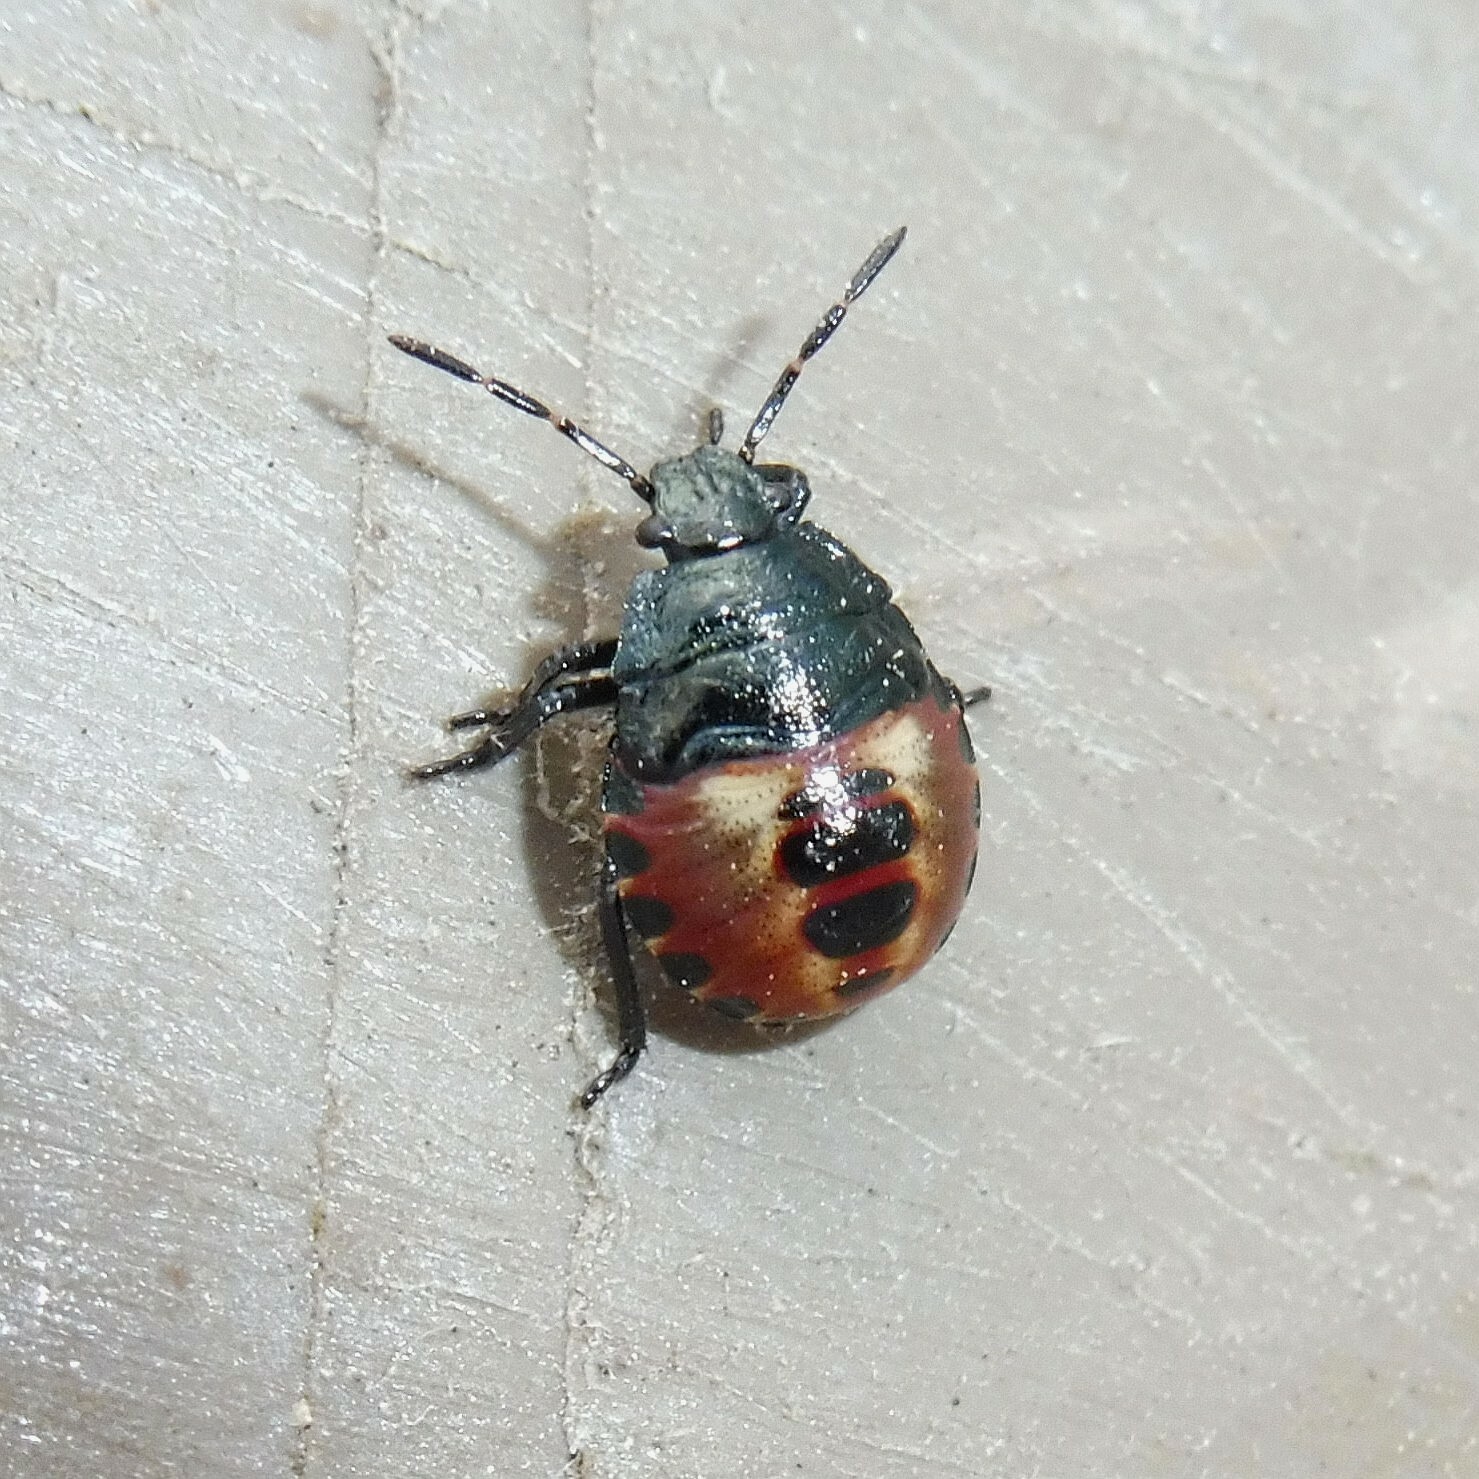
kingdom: Animalia
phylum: Arthropoda
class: Insecta
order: Hemiptera
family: Pentatomidae
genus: Rhacognathus
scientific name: Rhacognathus punctatus
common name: Heather bug
